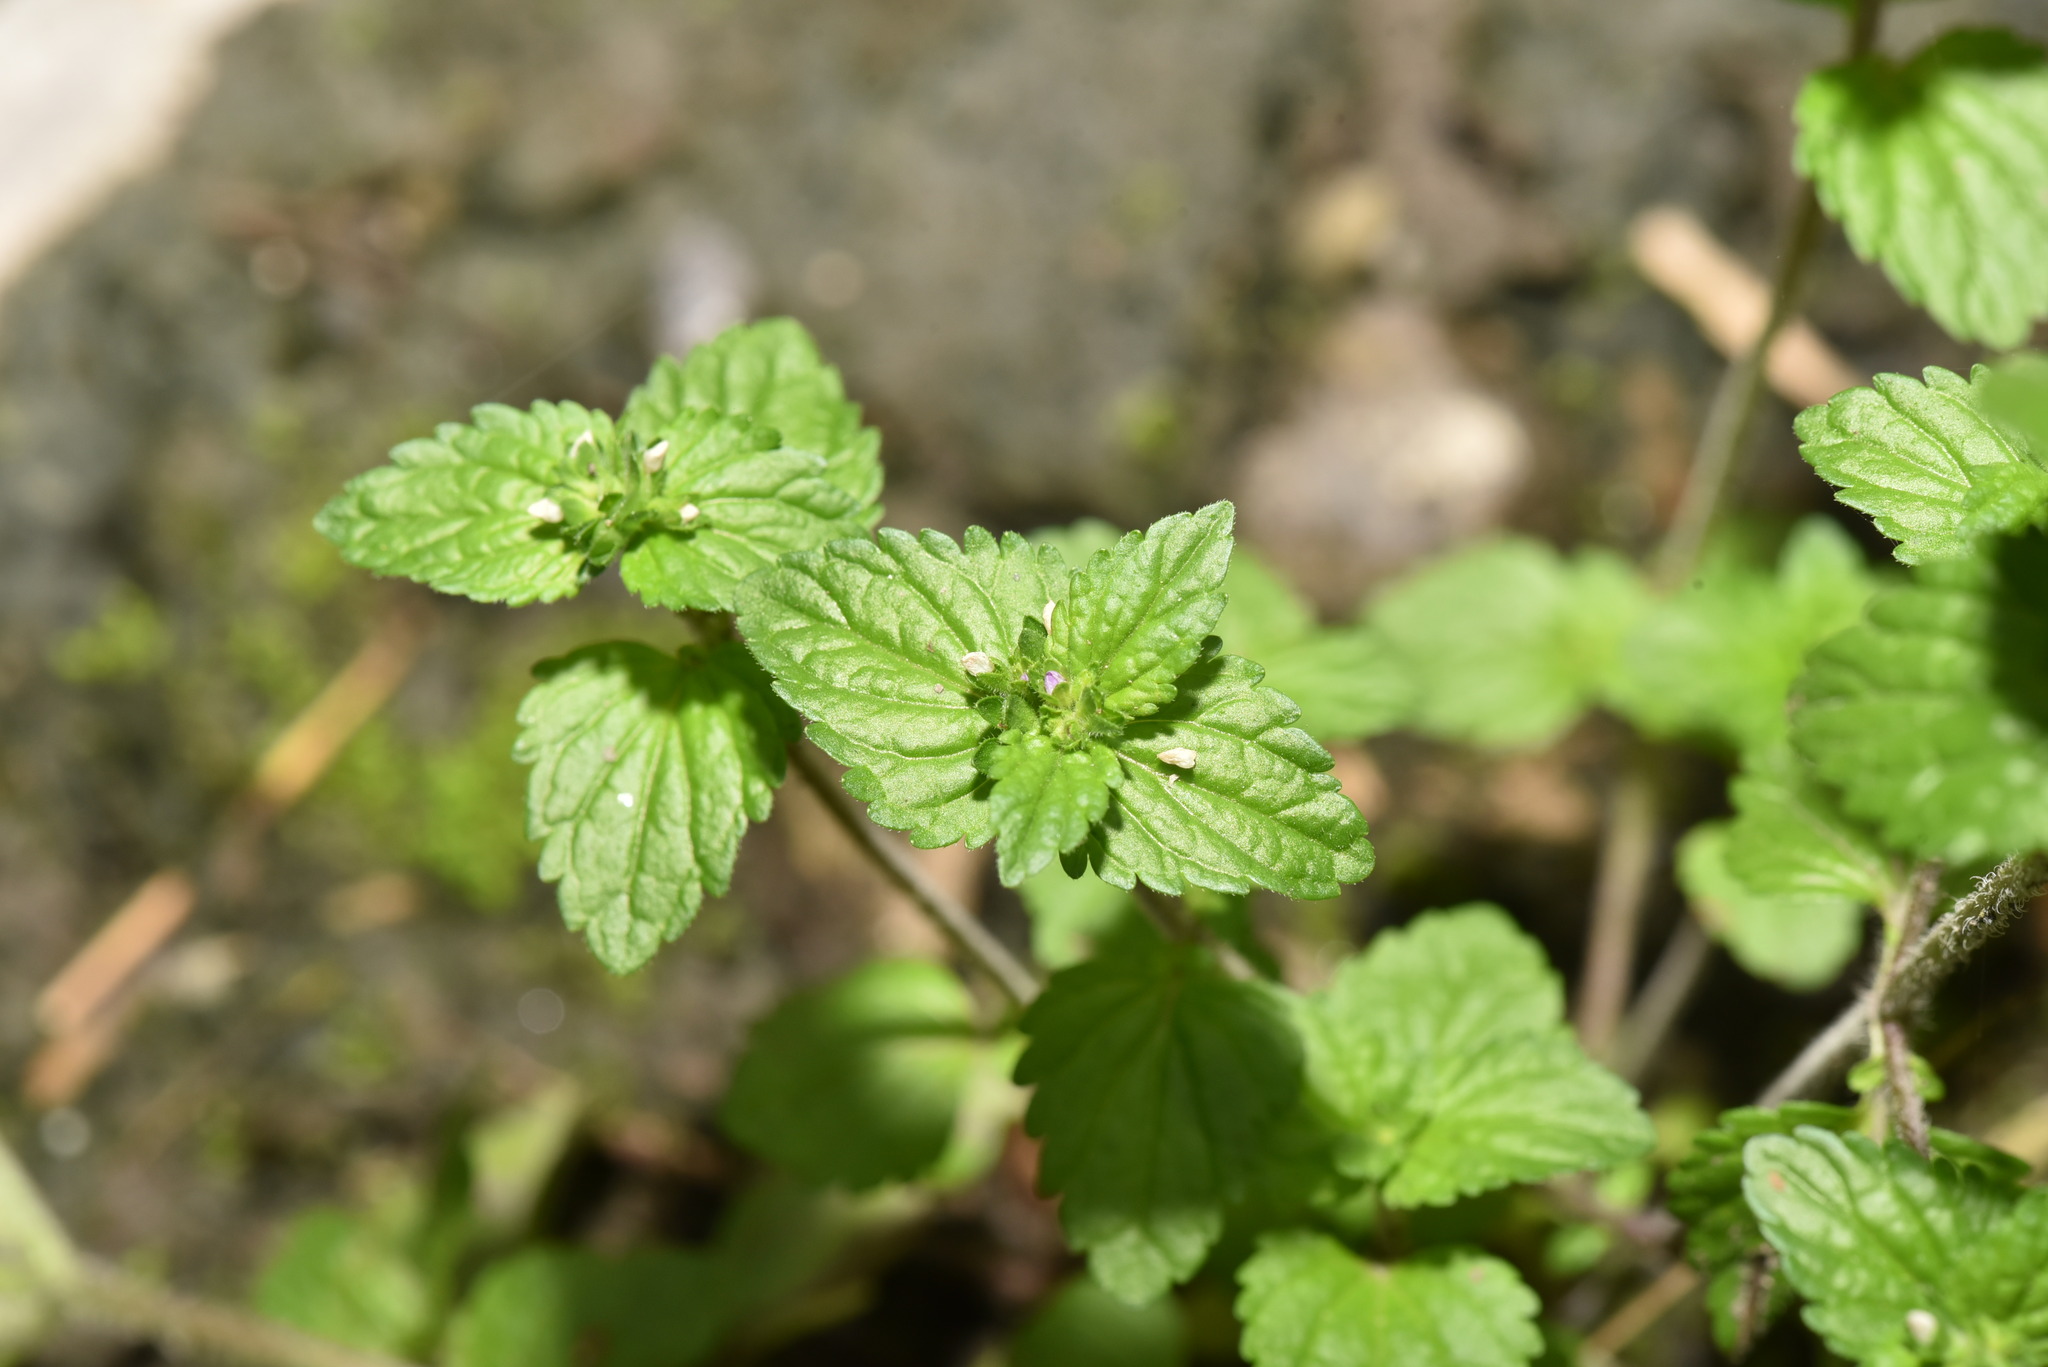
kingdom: Plantae
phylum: Tracheophyta
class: Magnoliopsida
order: Lamiales
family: Plantaginaceae
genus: Veronica
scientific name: Veronica javanica
